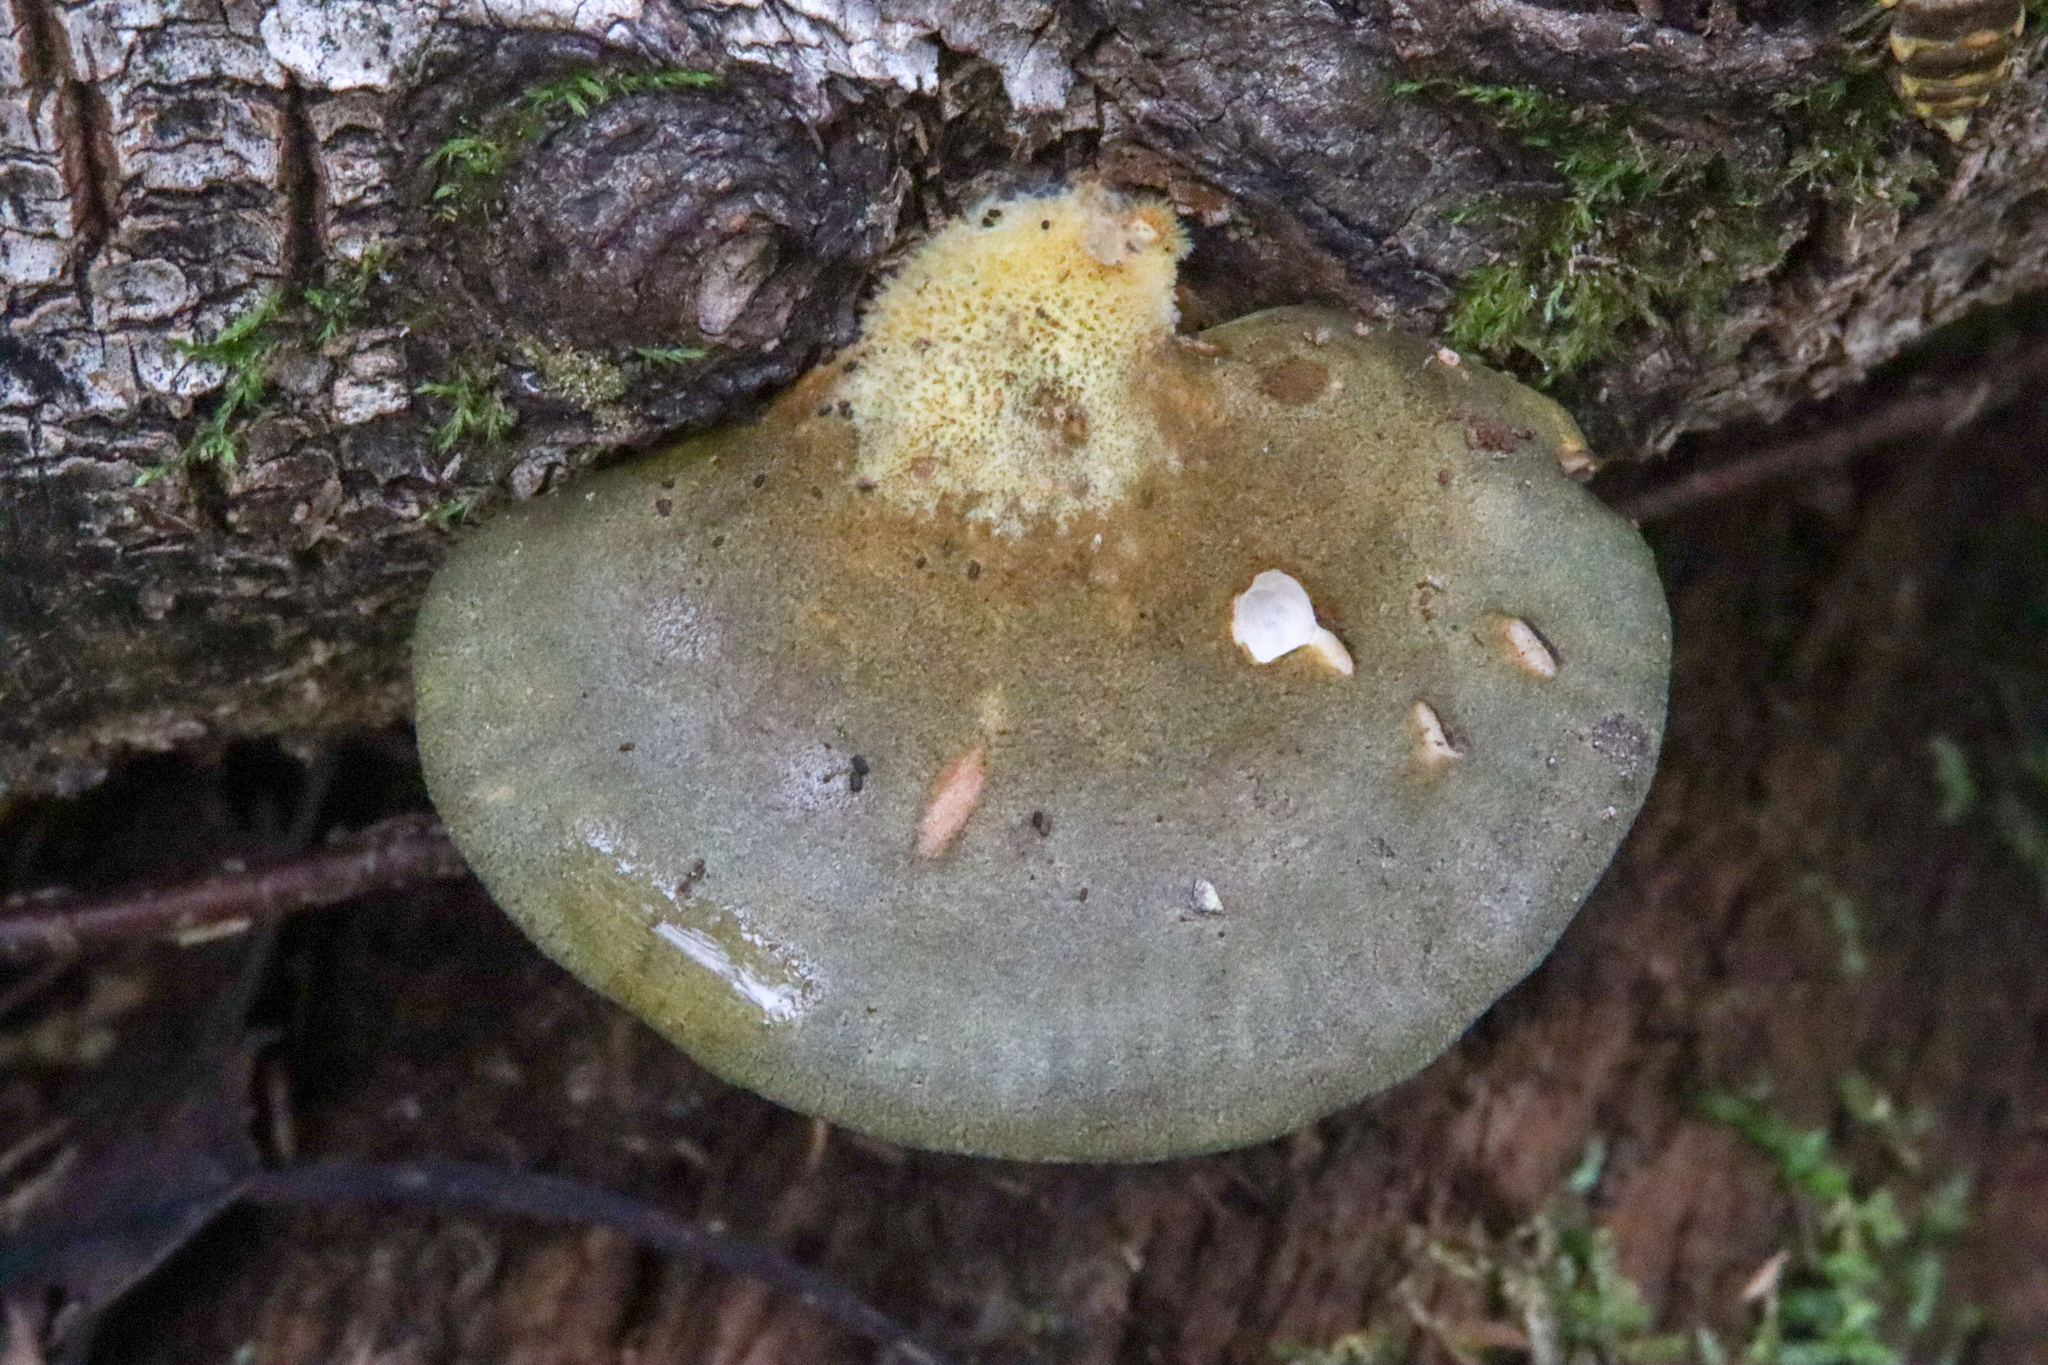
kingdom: Fungi
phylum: Basidiomycota
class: Agaricomycetes
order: Agaricales
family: Sarcomyxaceae
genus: Sarcomyxa
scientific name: Sarcomyxa serotina
